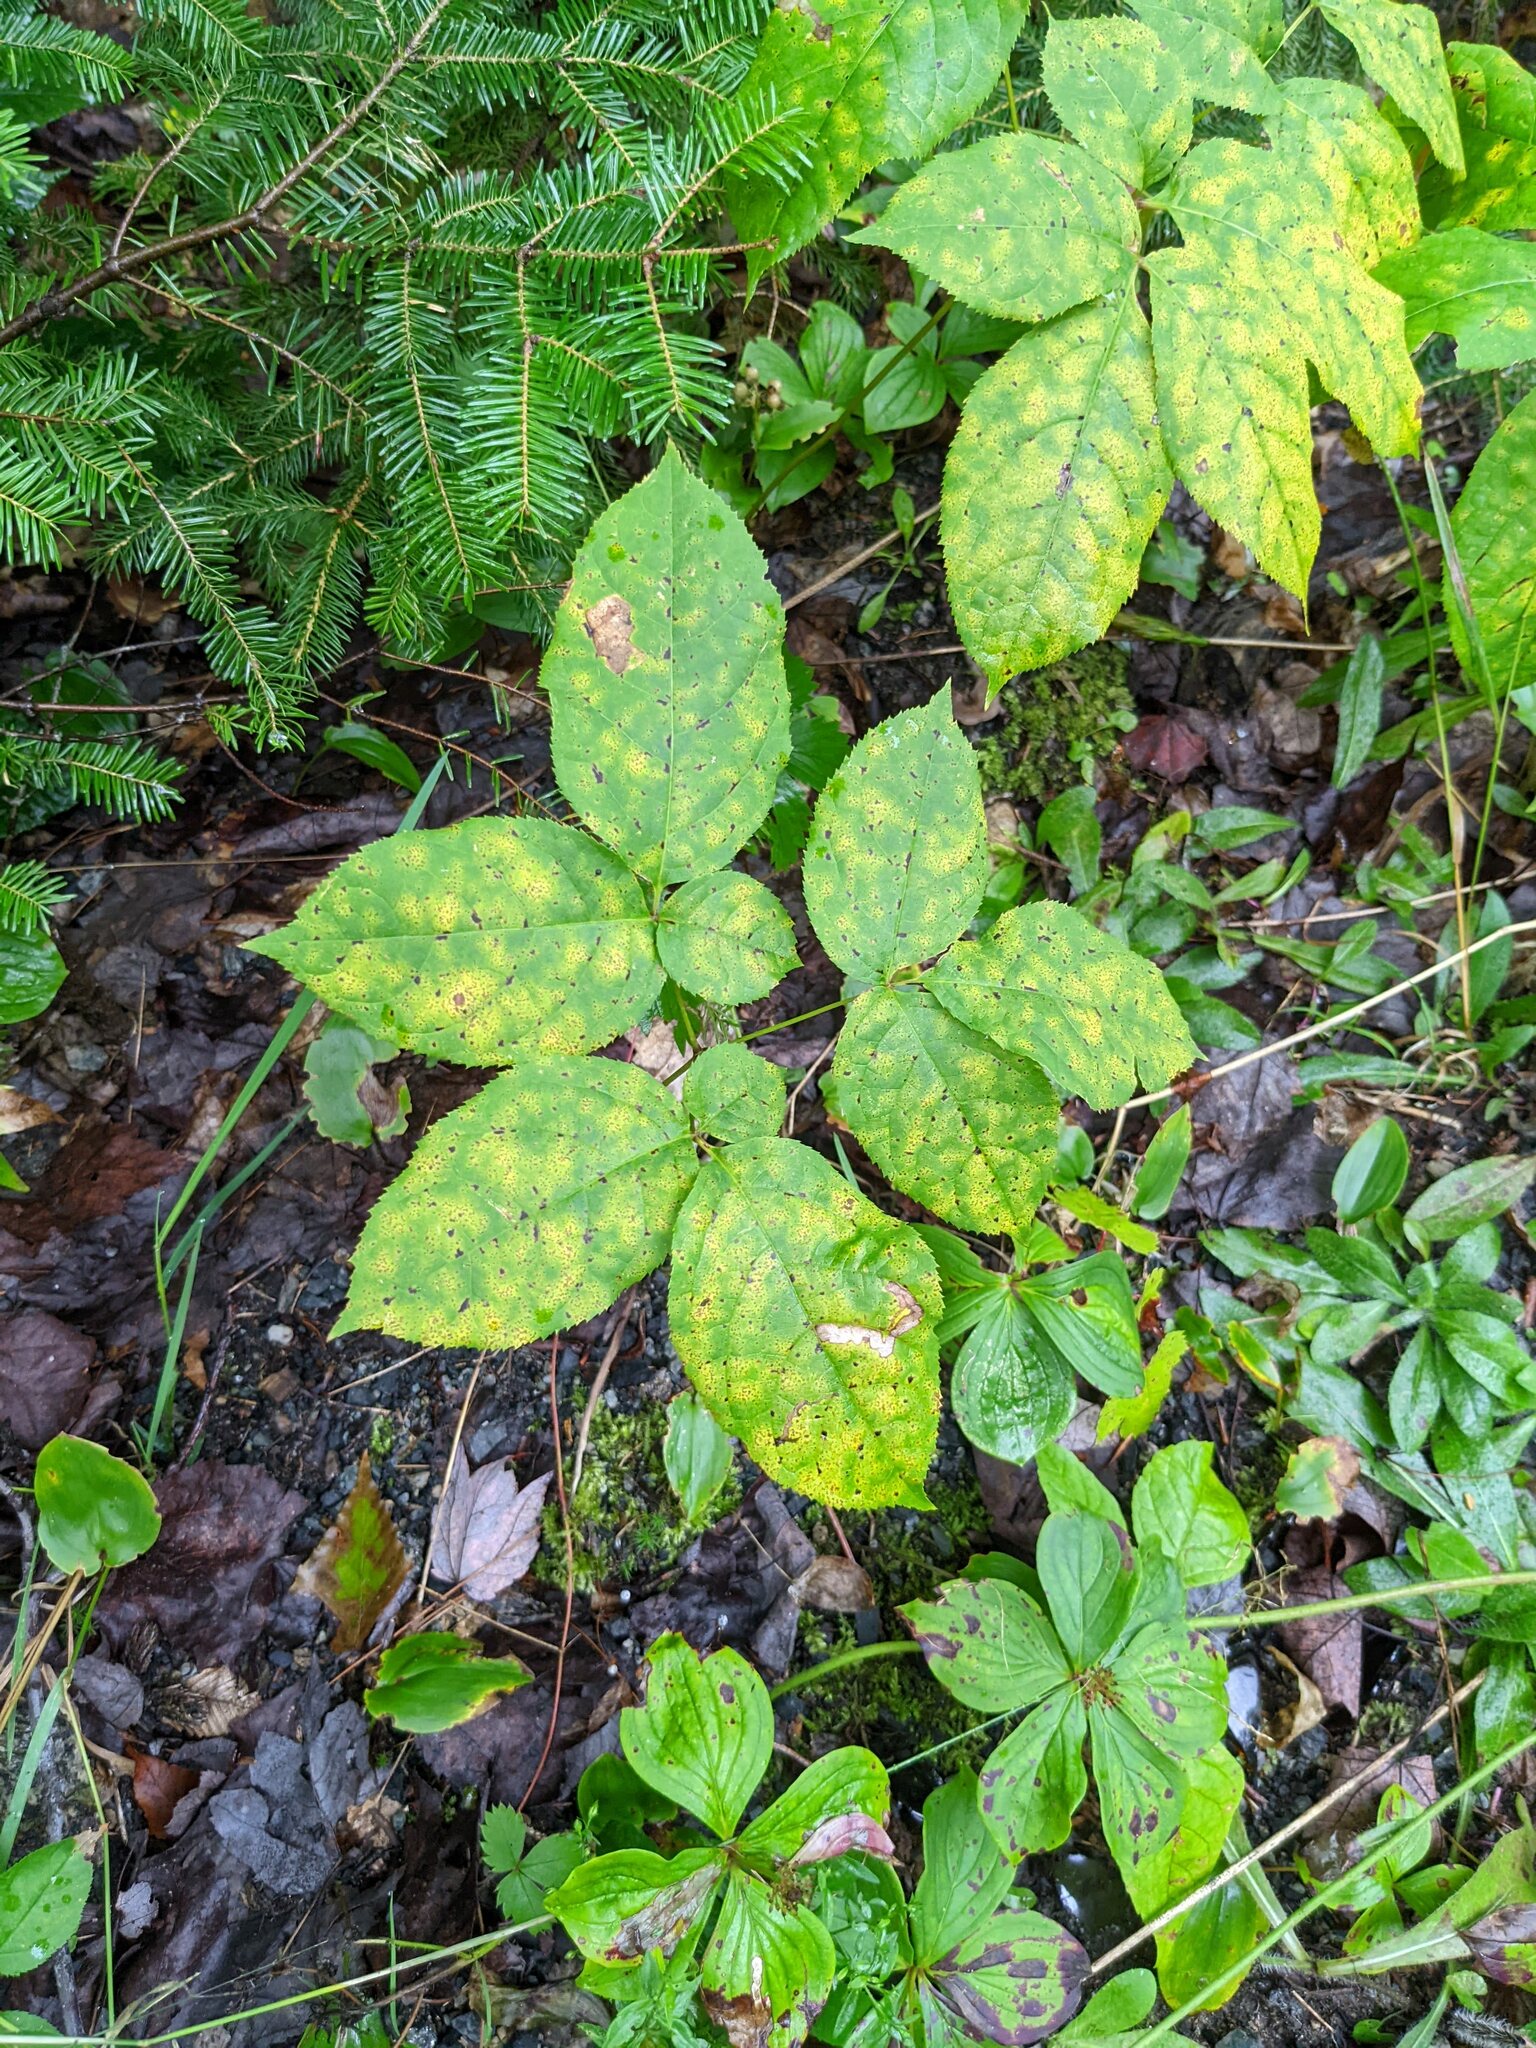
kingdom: Plantae
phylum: Tracheophyta
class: Magnoliopsida
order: Apiales
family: Araliaceae
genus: Aralia
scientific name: Aralia nudicaulis
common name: Wild sarsaparilla
